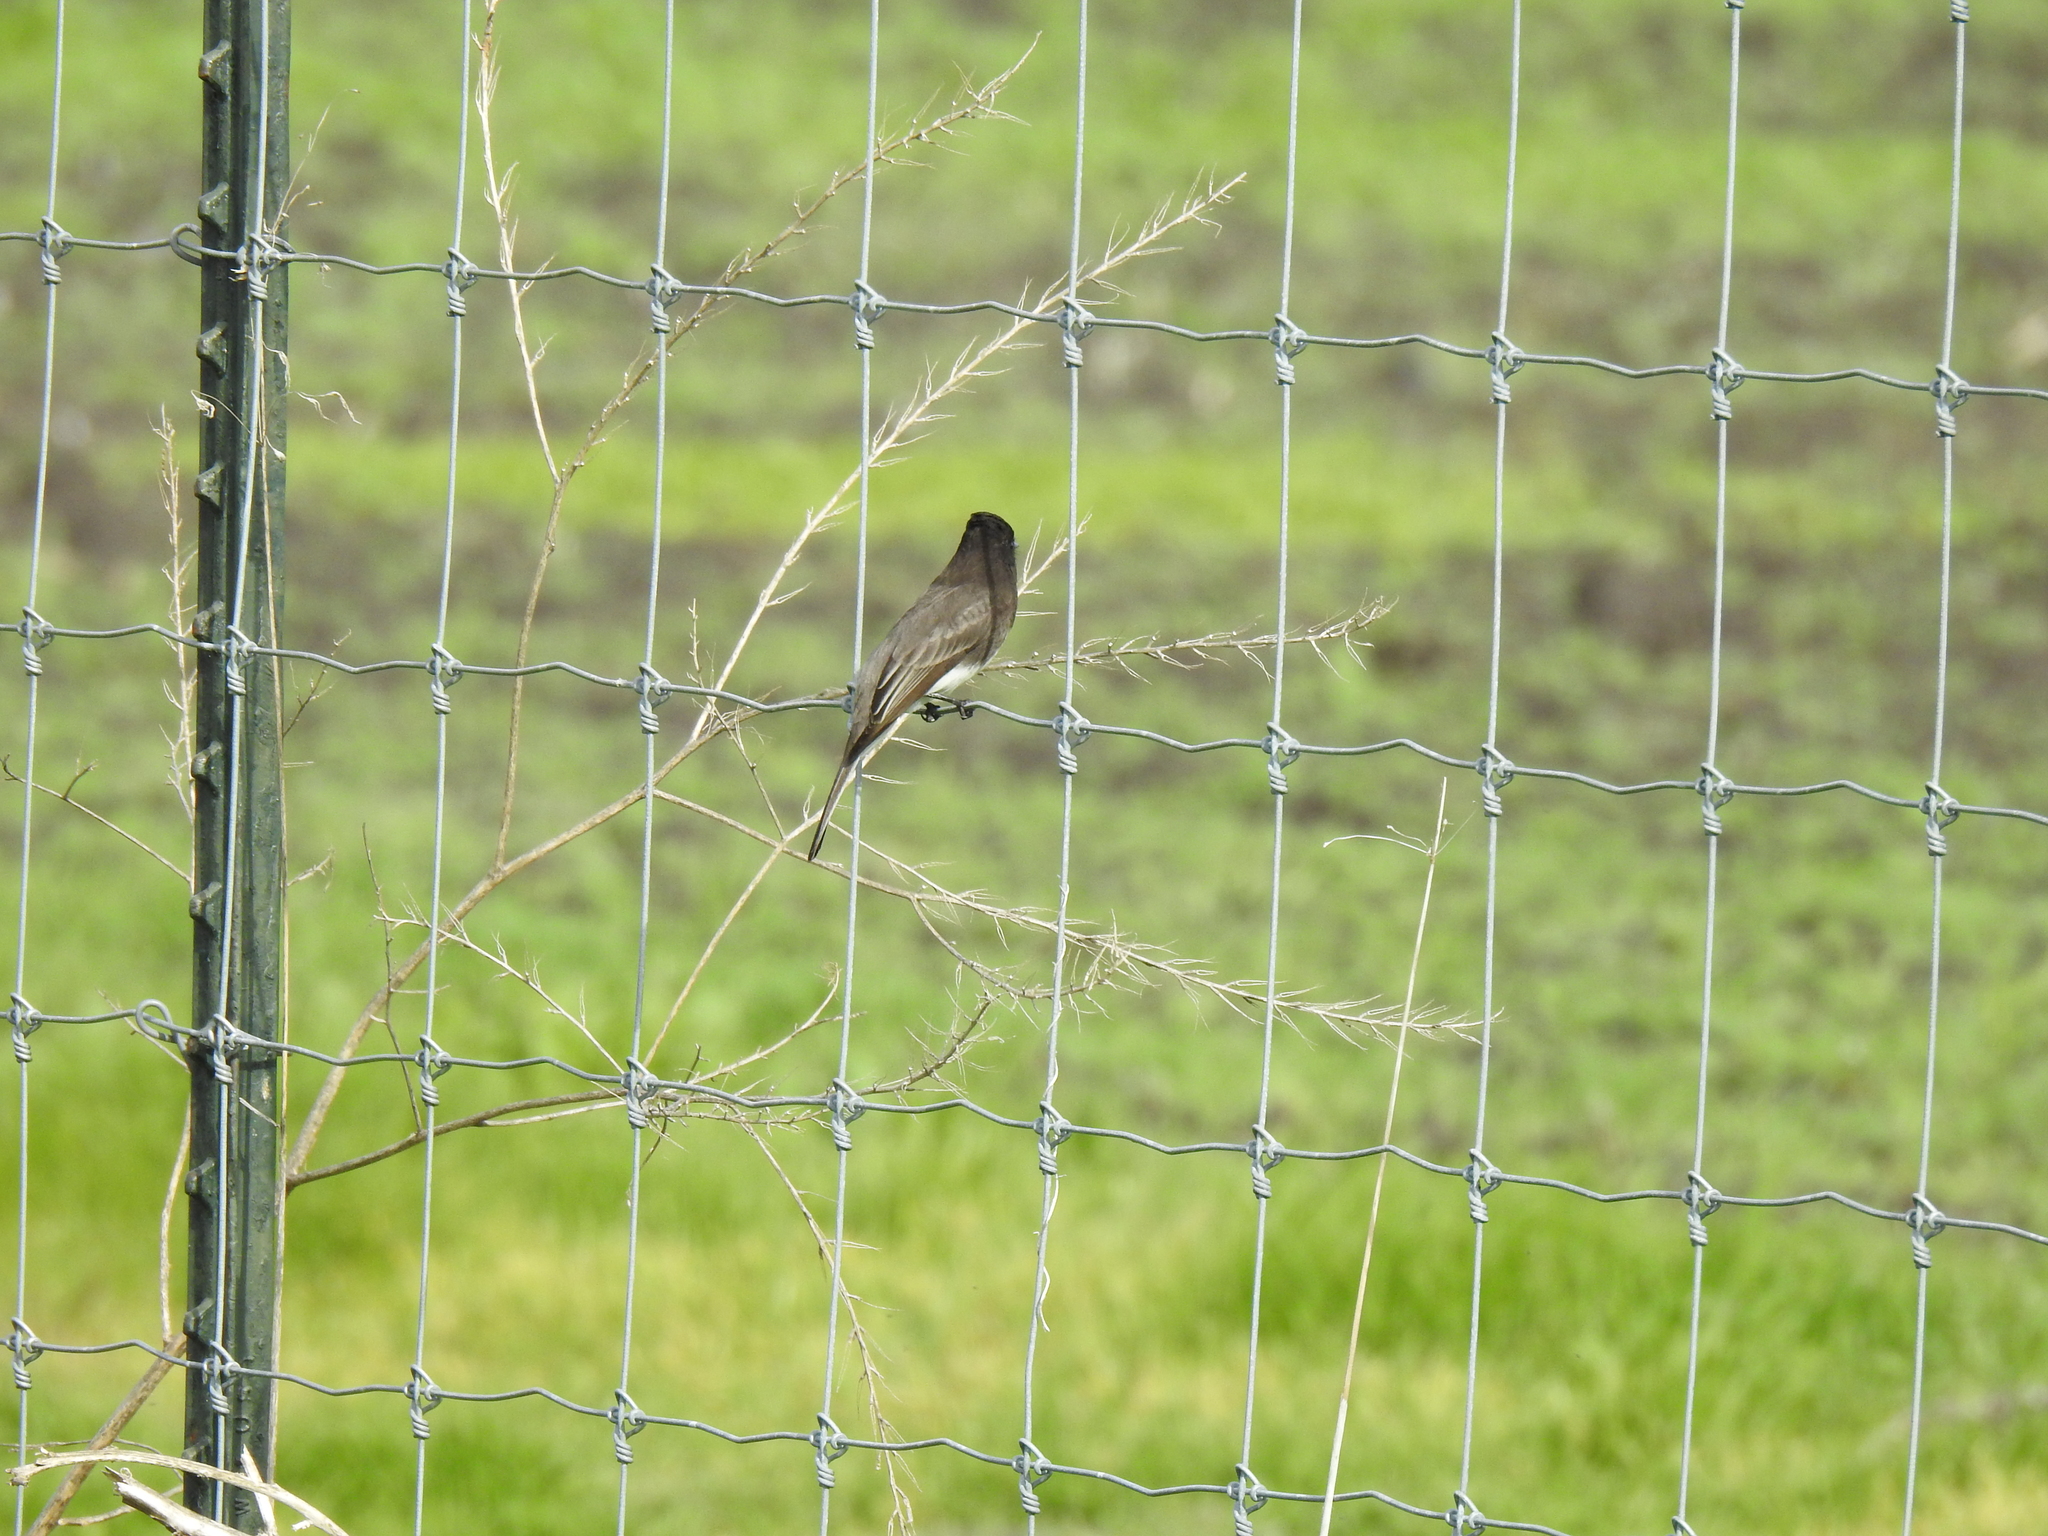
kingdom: Animalia
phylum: Chordata
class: Aves
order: Passeriformes
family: Tyrannidae
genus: Sayornis
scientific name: Sayornis nigricans
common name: Black phoebe
